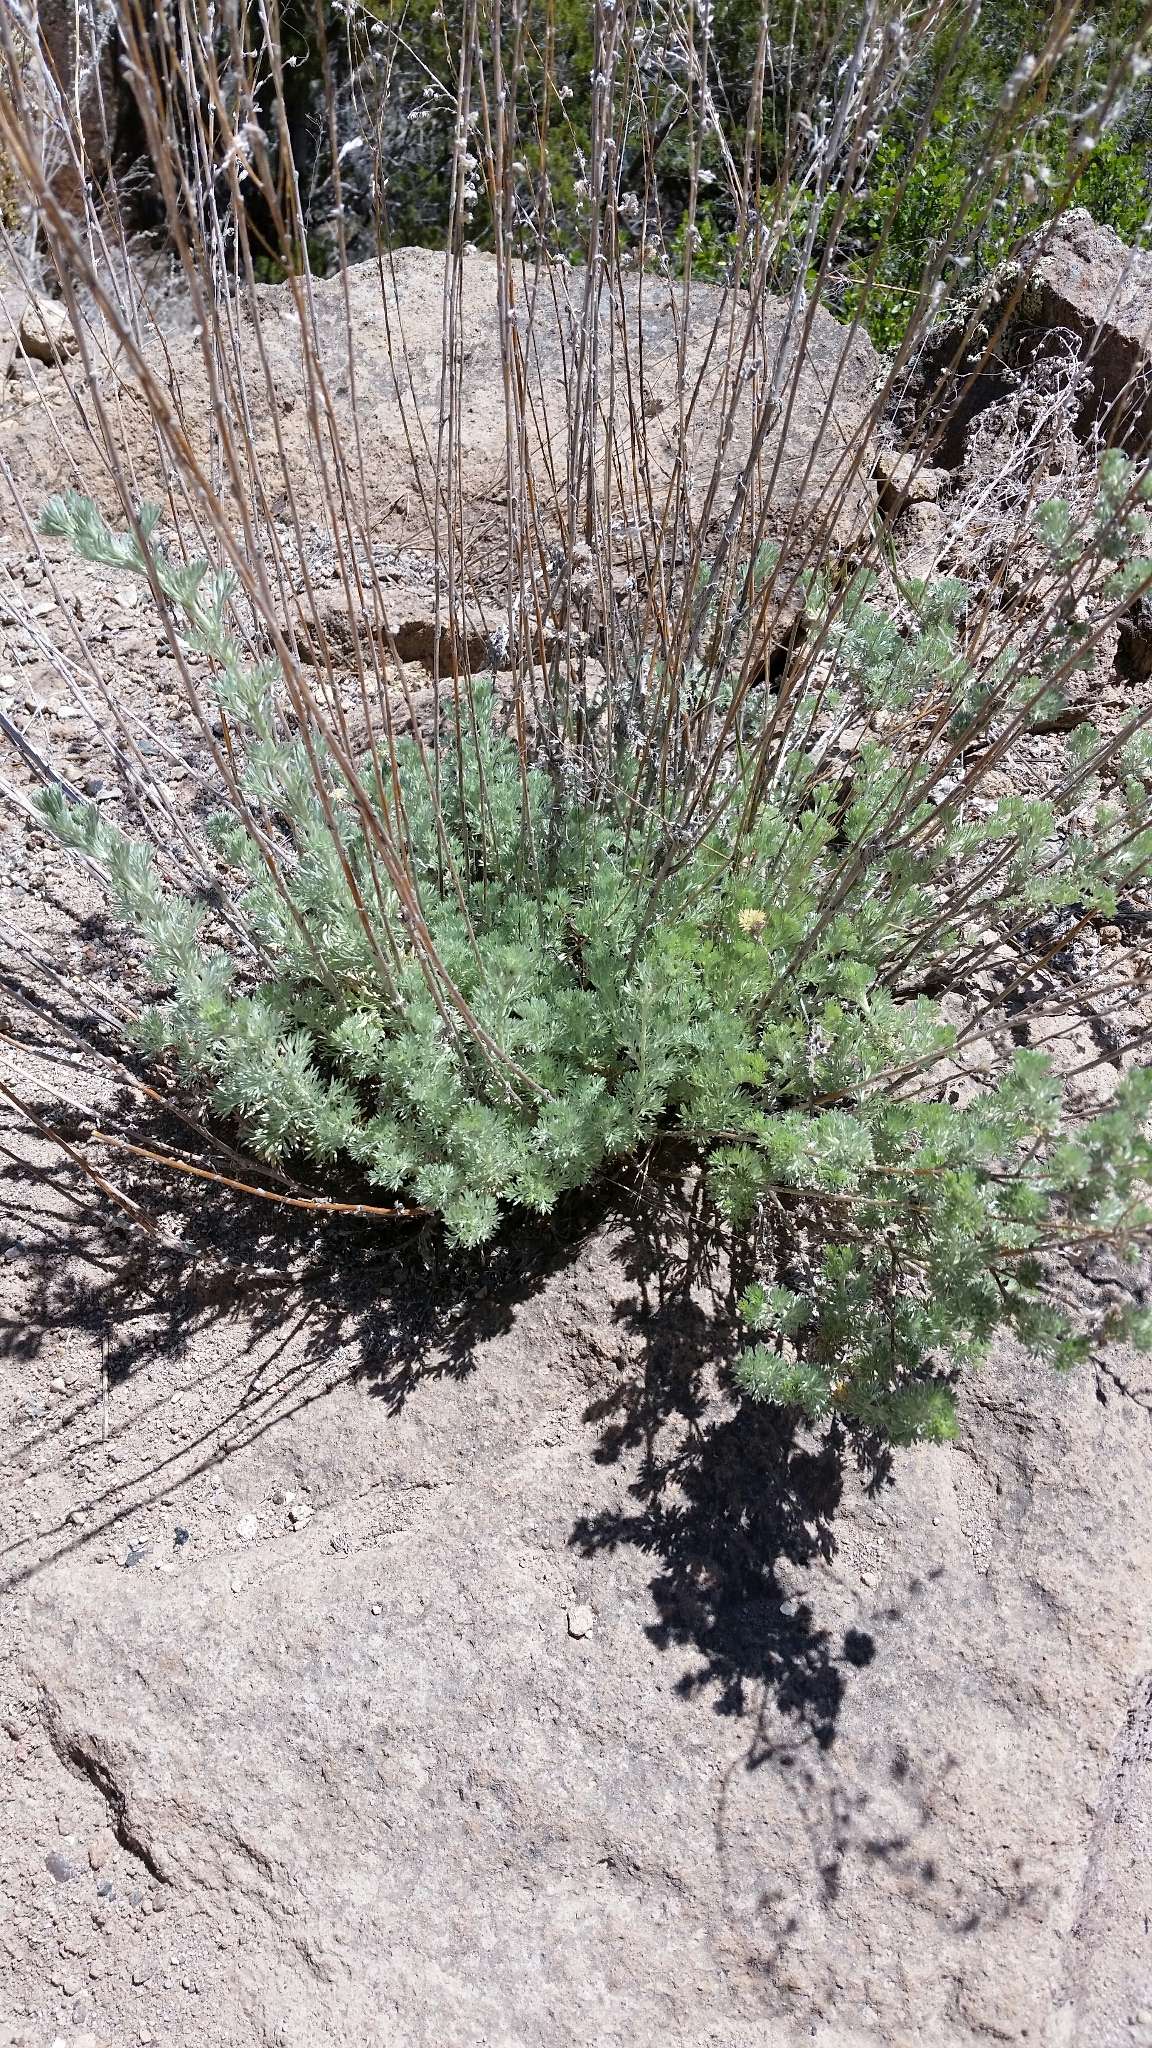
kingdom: Plantae
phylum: Tracheophyta
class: Magnoliopsida
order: Asterales
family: Asteraceae
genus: Artemisia
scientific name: Artemisia frigida
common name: Prairie sagewort
